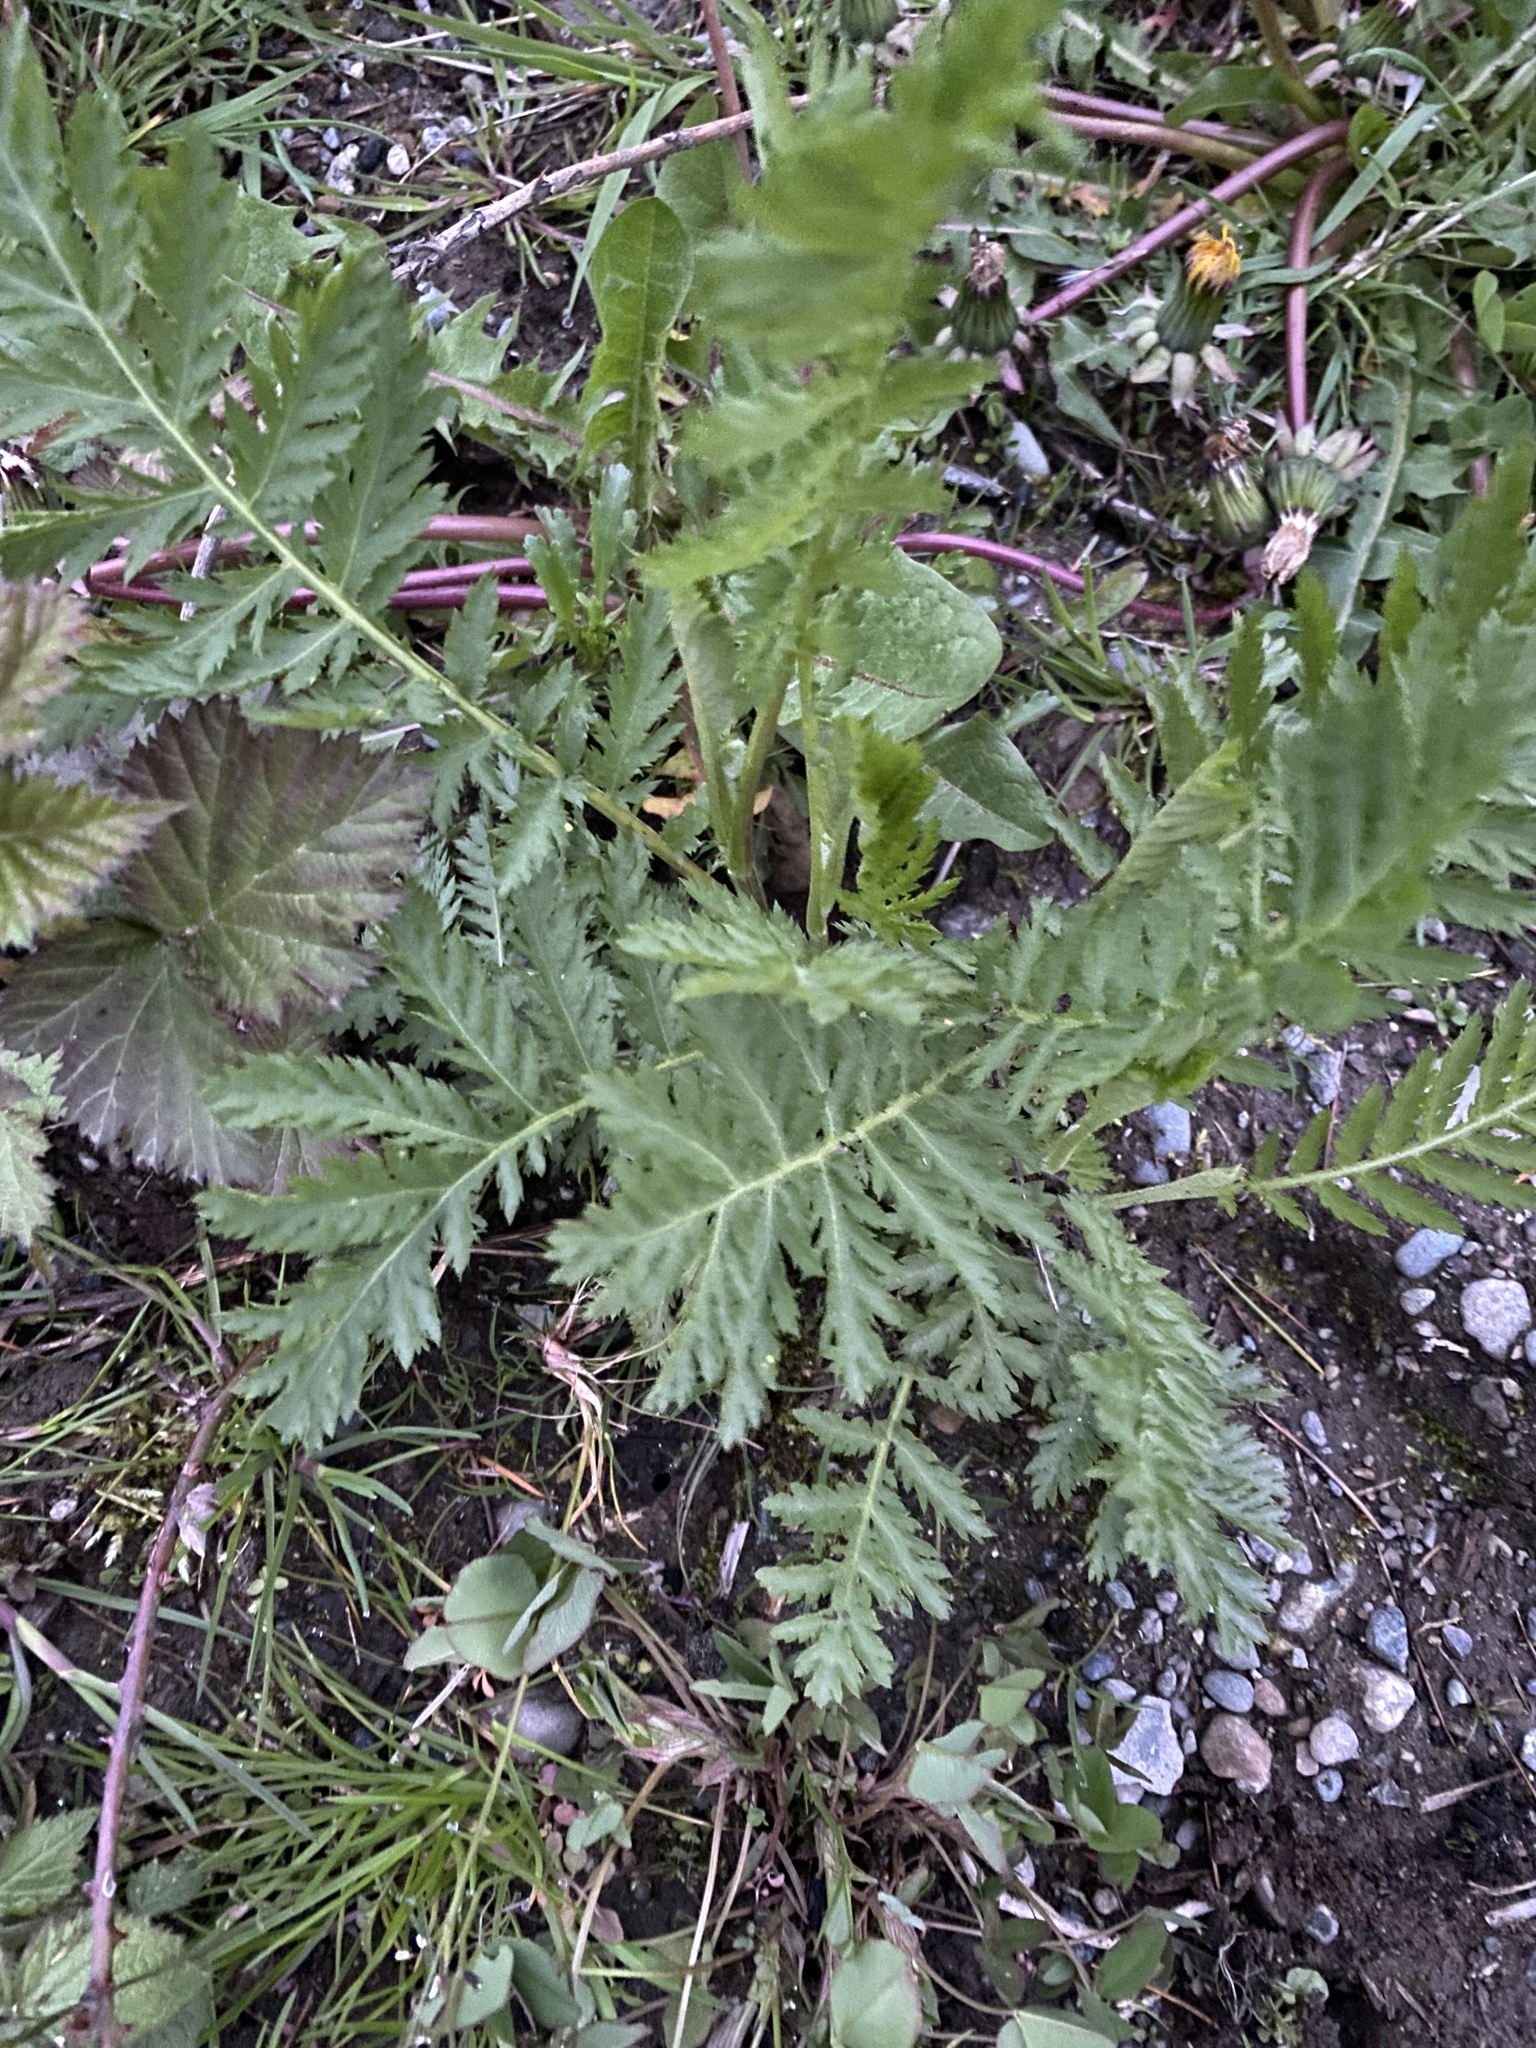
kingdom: Plantae
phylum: Tracheophyta
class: Magnoliopsida
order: Asterales
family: Asteraceae
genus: Tanacetum
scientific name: Tanacetum vulgare
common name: Common tansy
